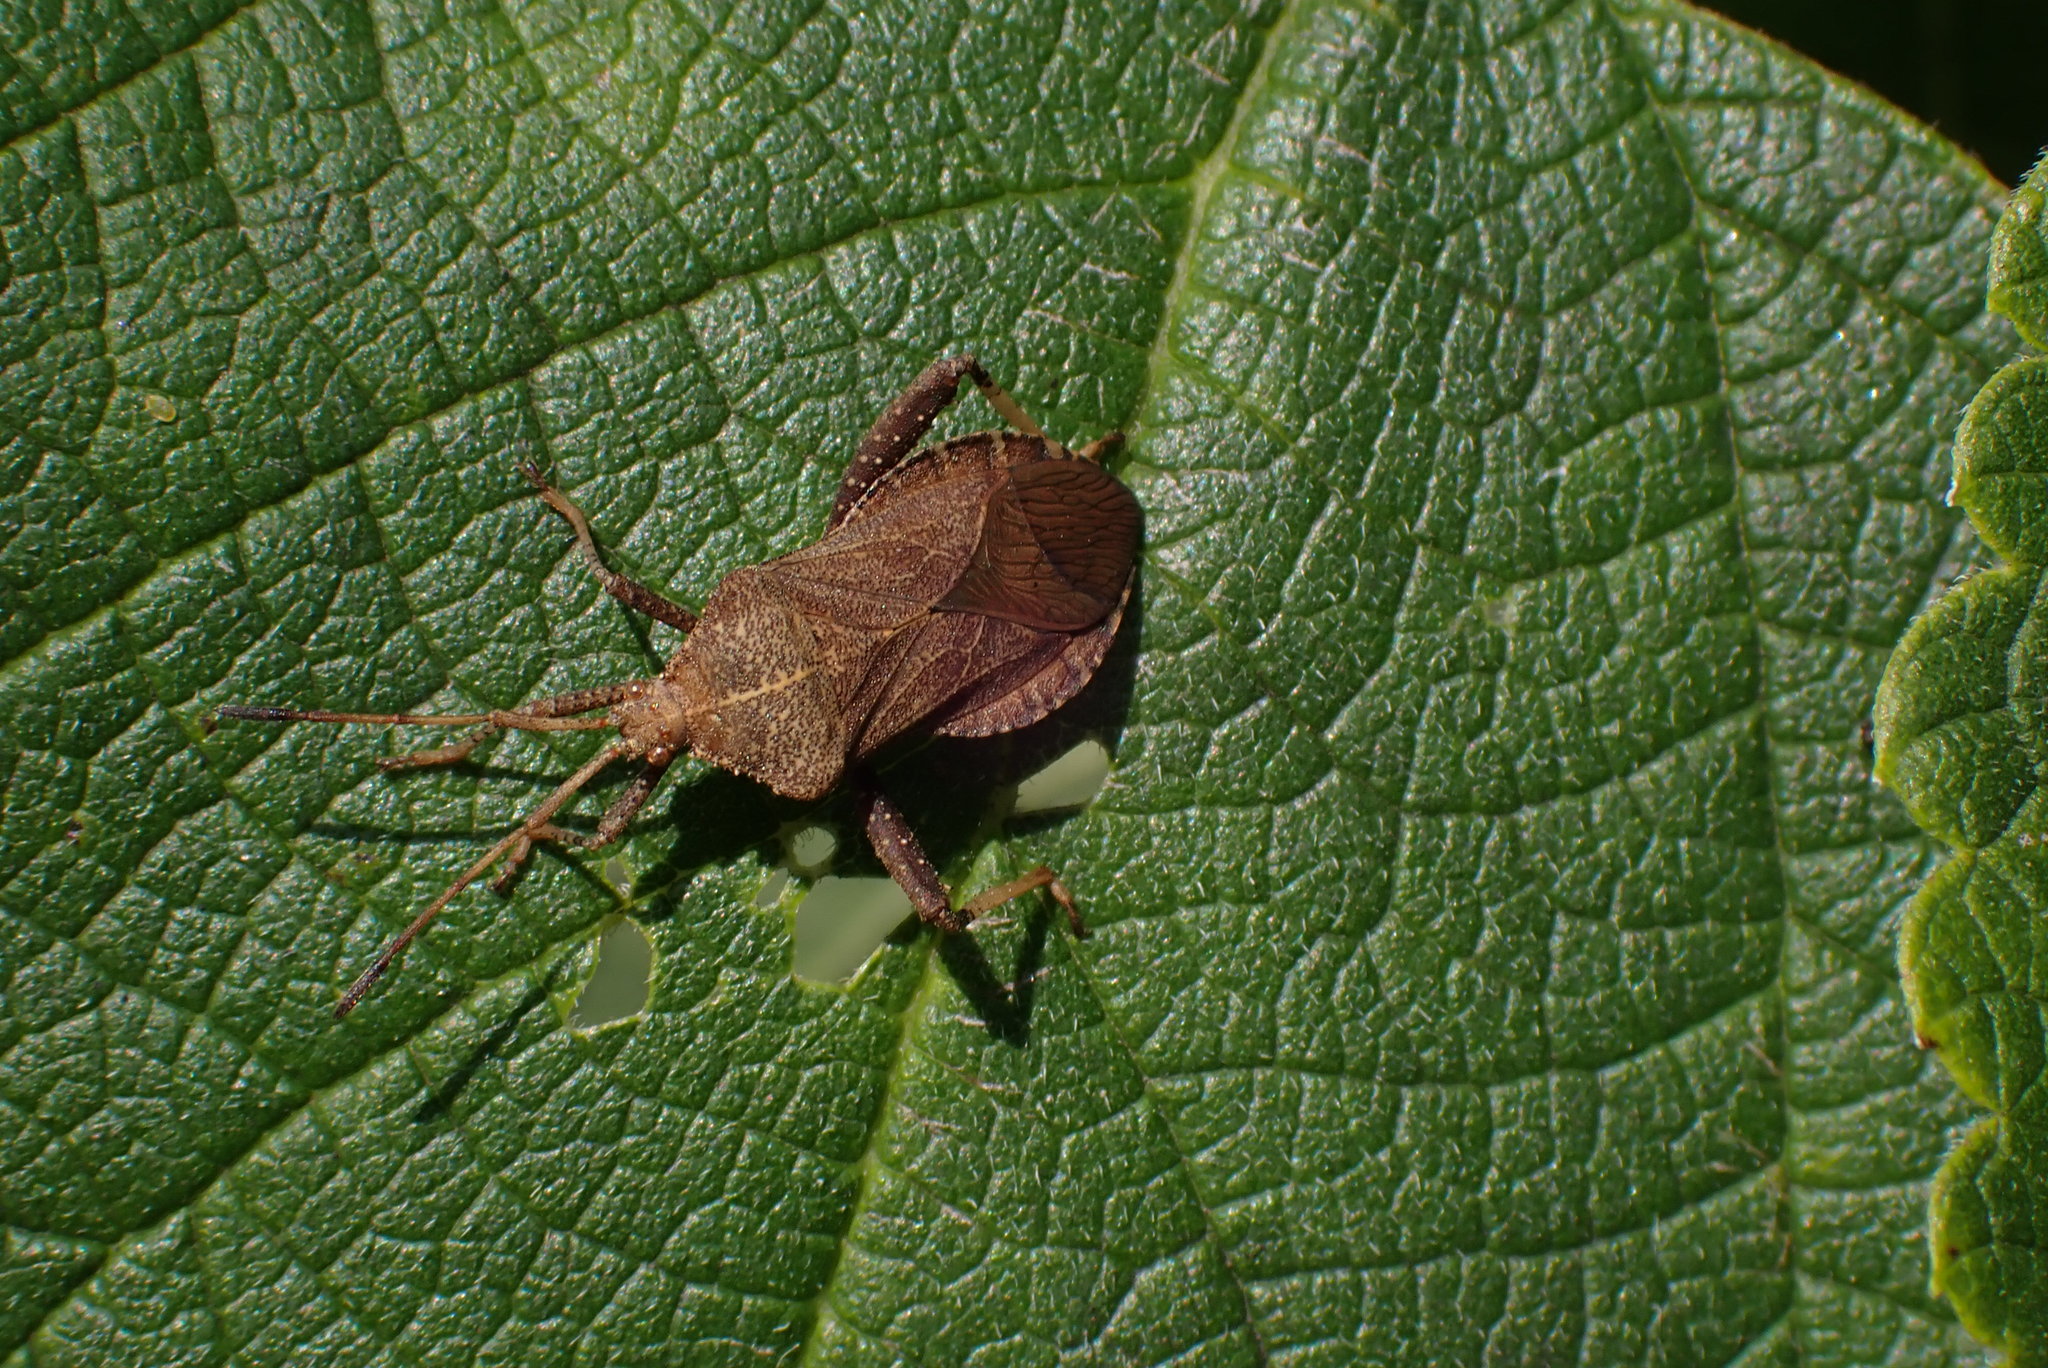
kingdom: Animalia
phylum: Arthropoda
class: Insecta
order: Hemiptera
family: Coreidae
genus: Euthochtha
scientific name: Euthochtha galeator
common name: Helmeted squash bug
